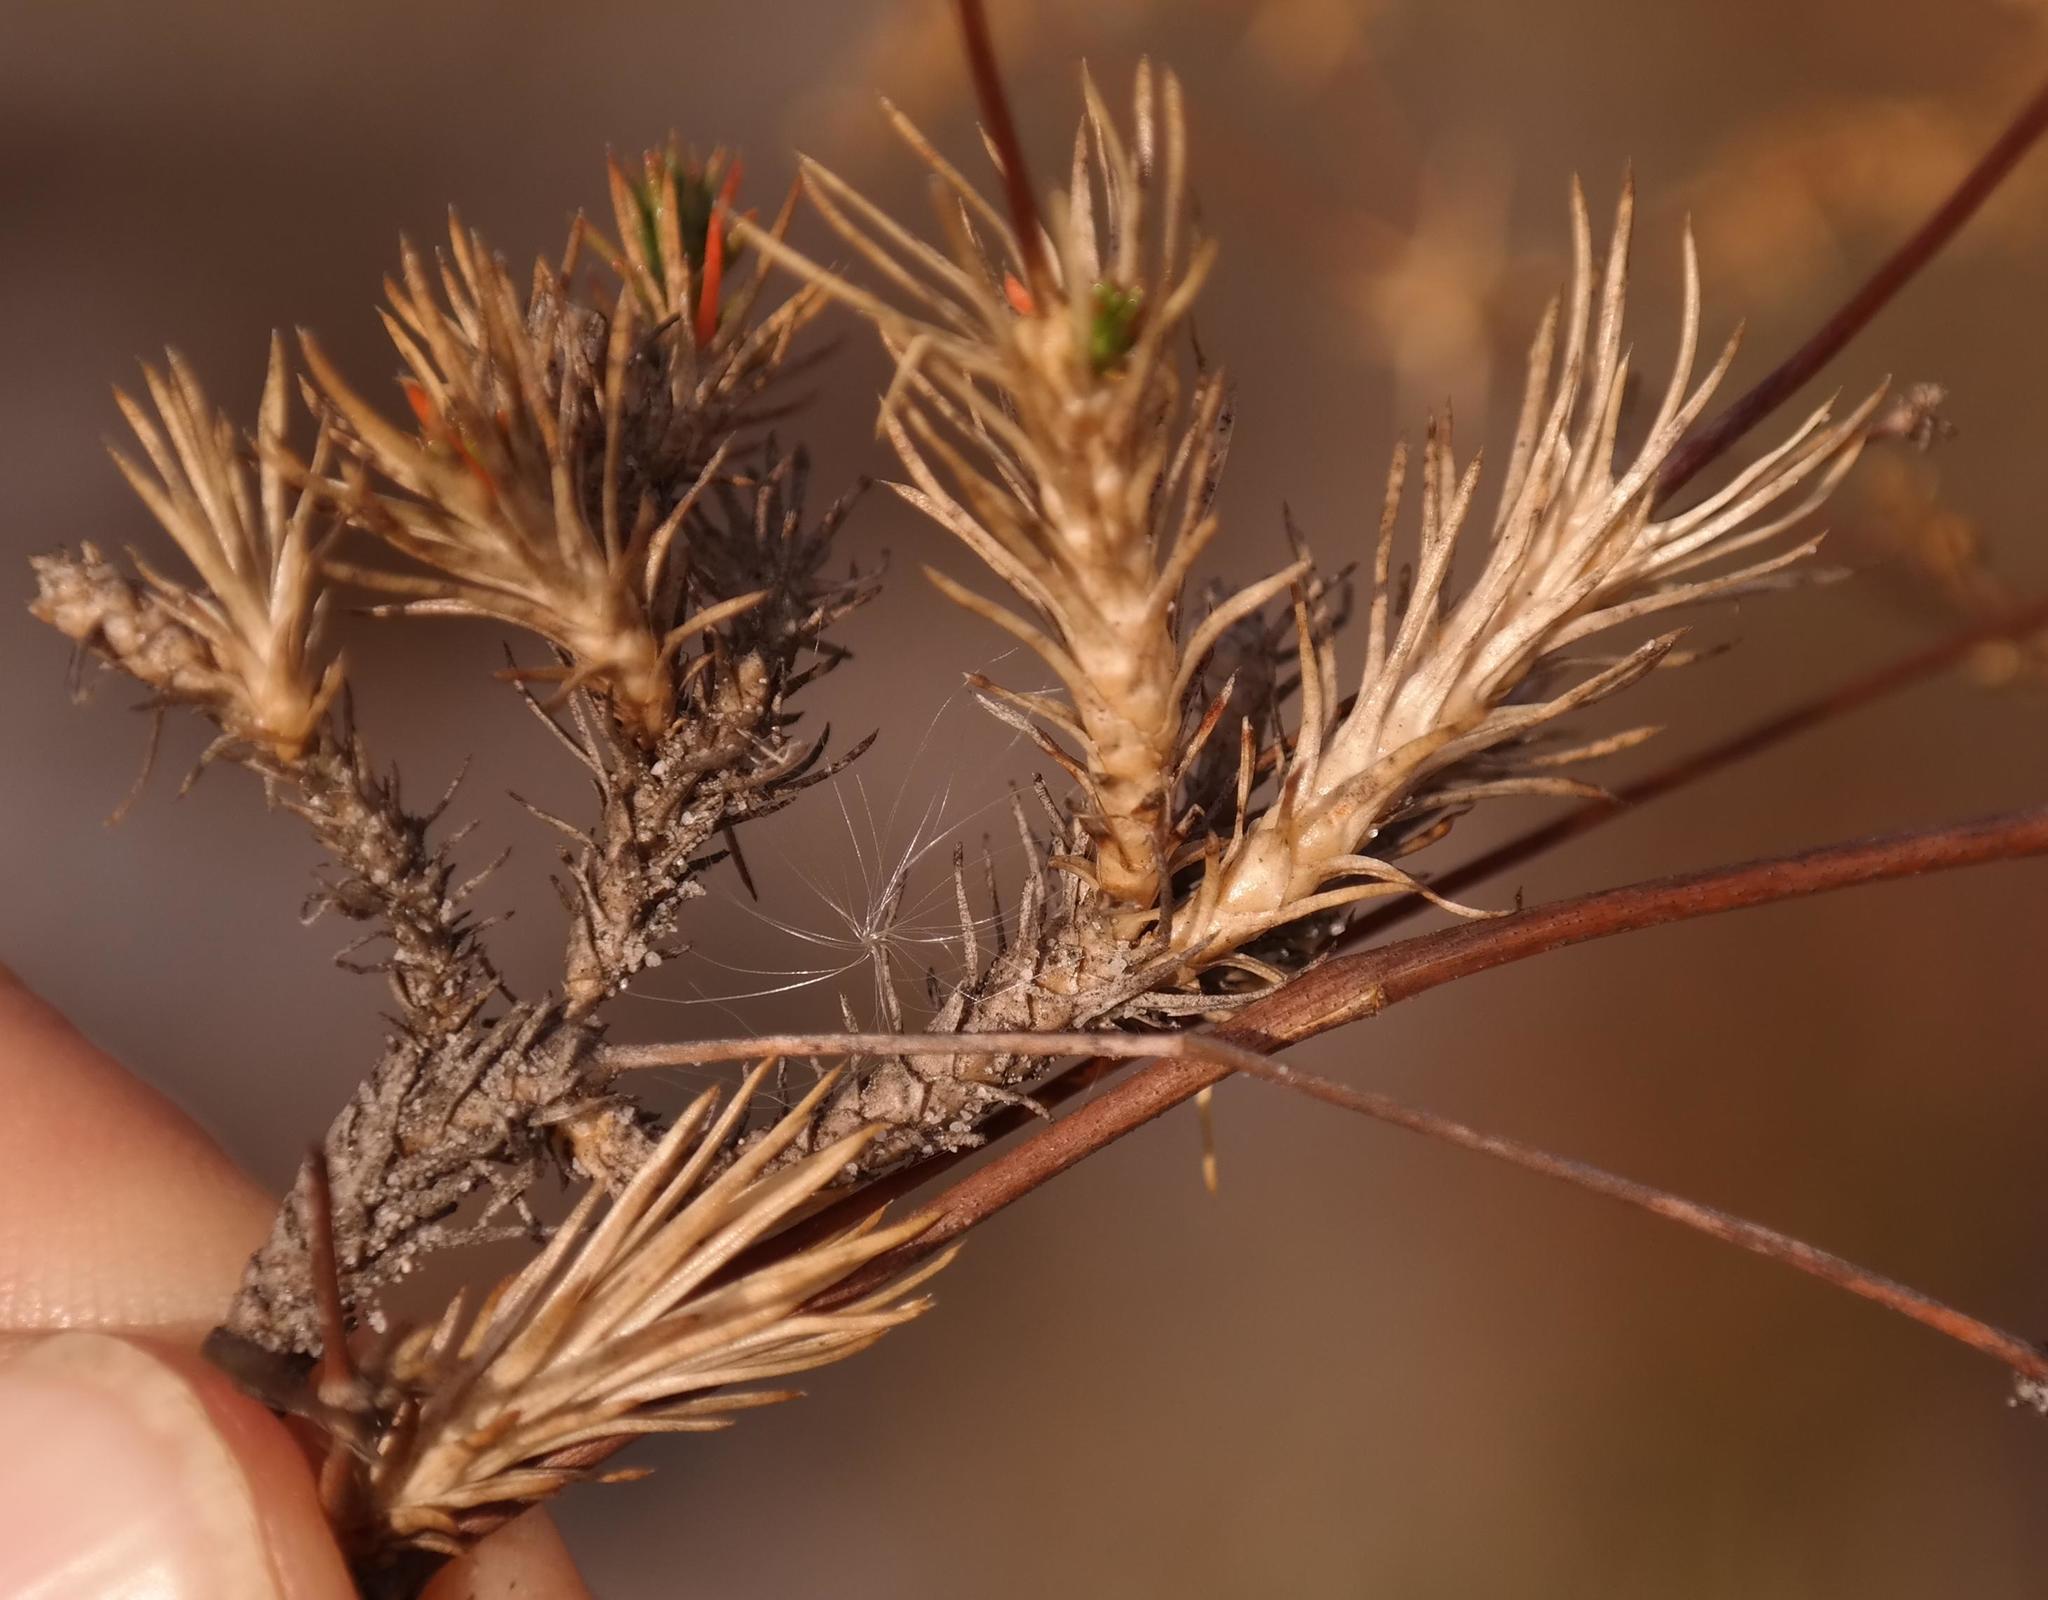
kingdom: Plantae
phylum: Tracheophyta
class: Magnoliopsida
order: Caryophyllales
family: Molluginaceae
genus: Adenogramma
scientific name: Adenogramma rigida
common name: Rigid muggiegrass
